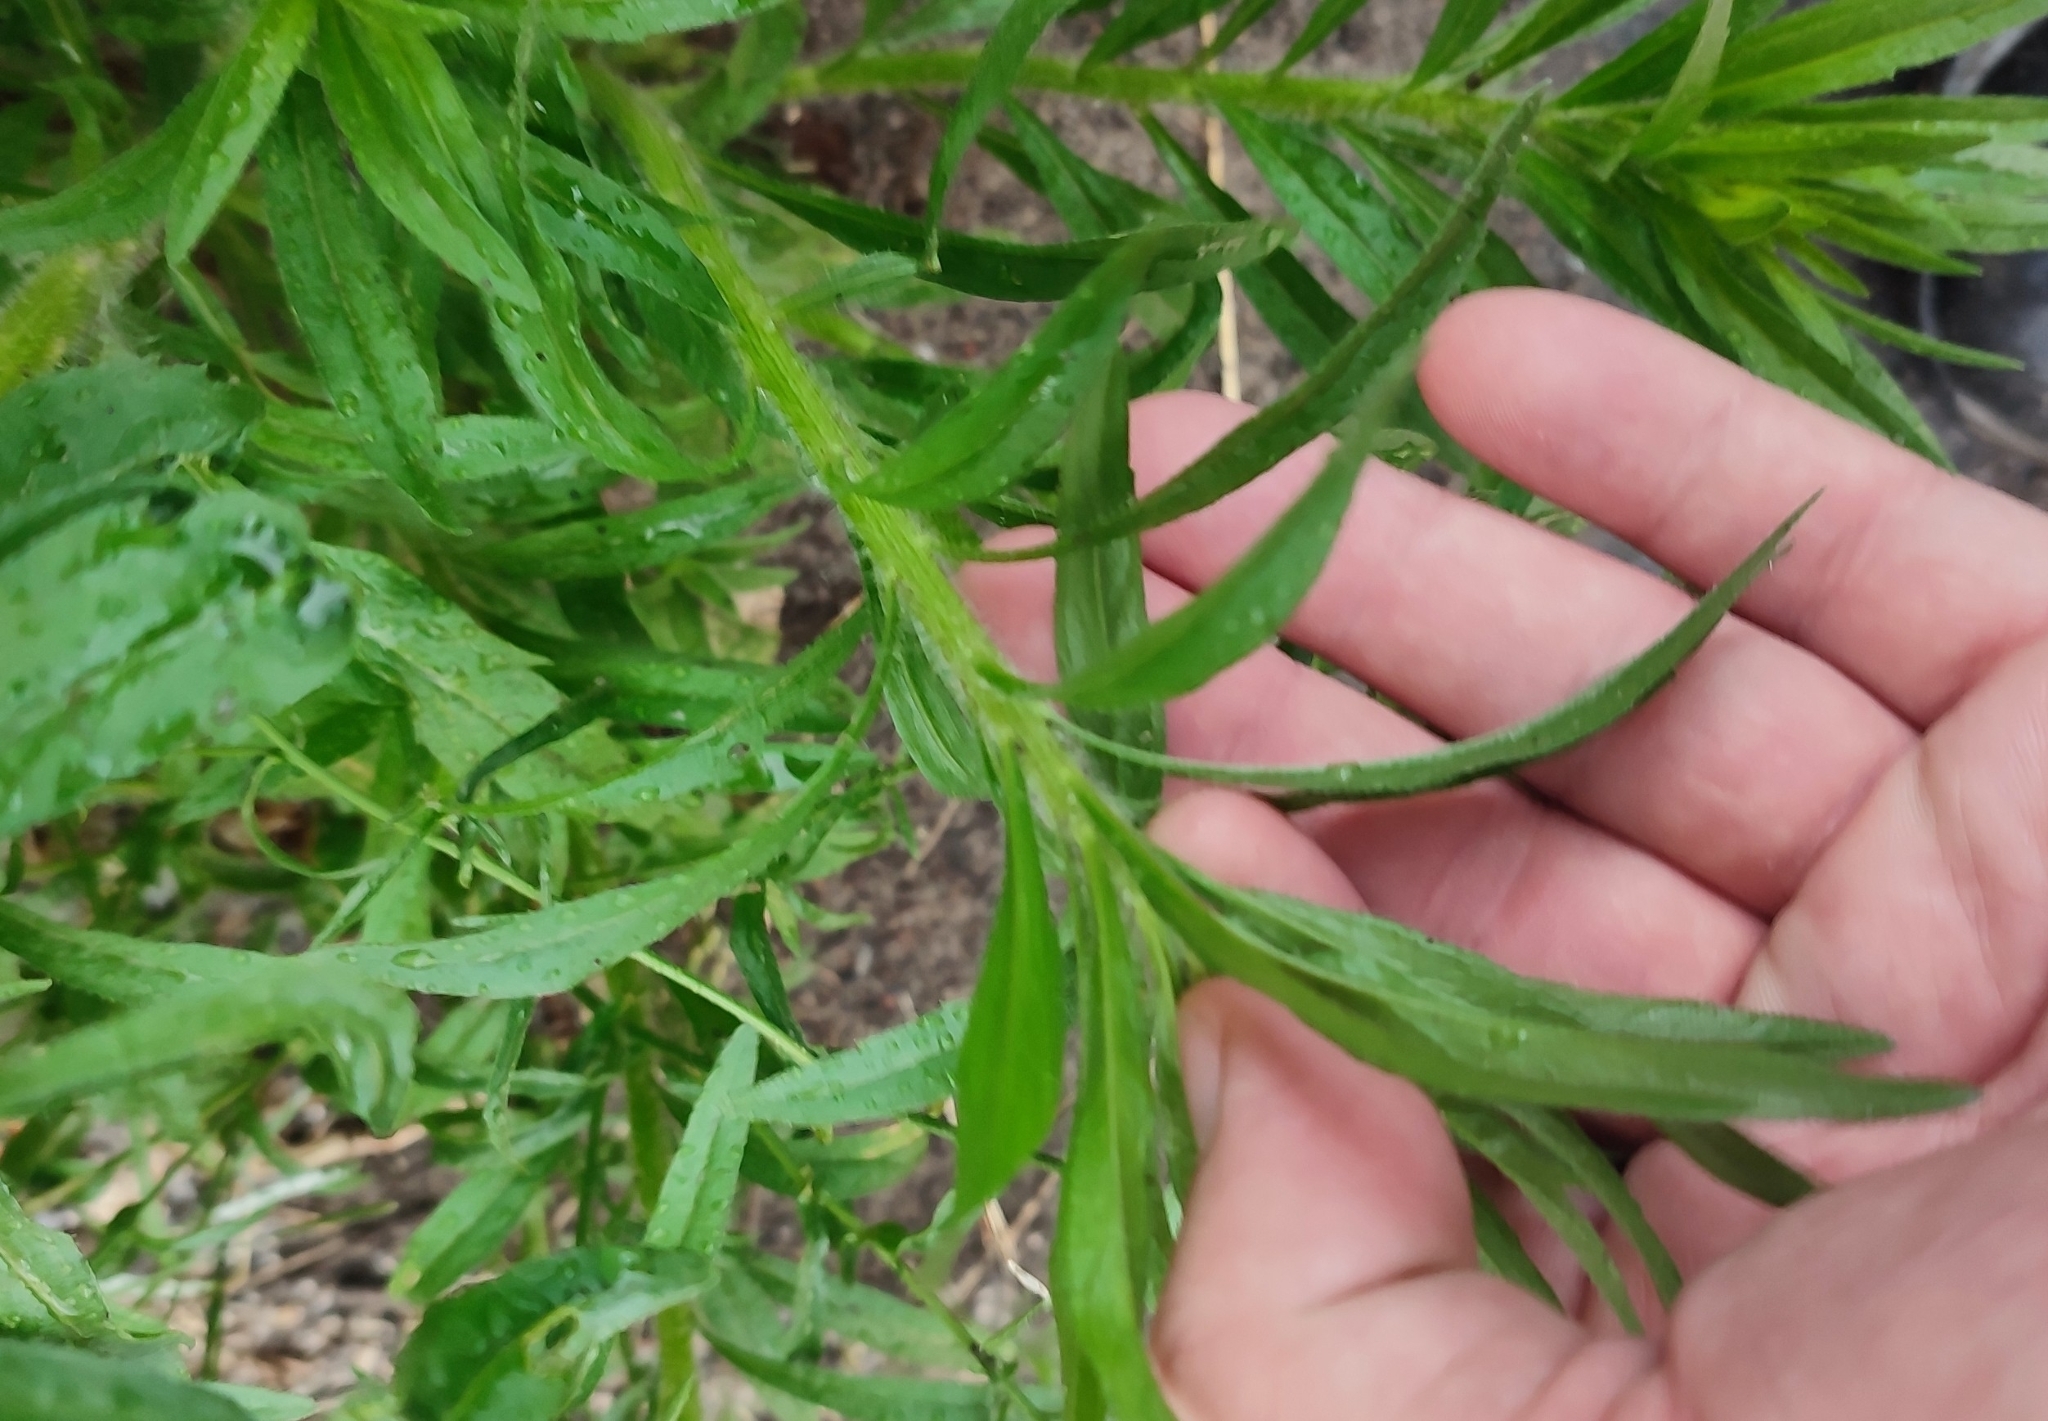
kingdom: Plantae
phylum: Tracheophyta
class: Magnoliopsida
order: Asterales
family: Asteraceae
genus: Erigeron
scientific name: Erigeron canadensis
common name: Canadian fleabane
